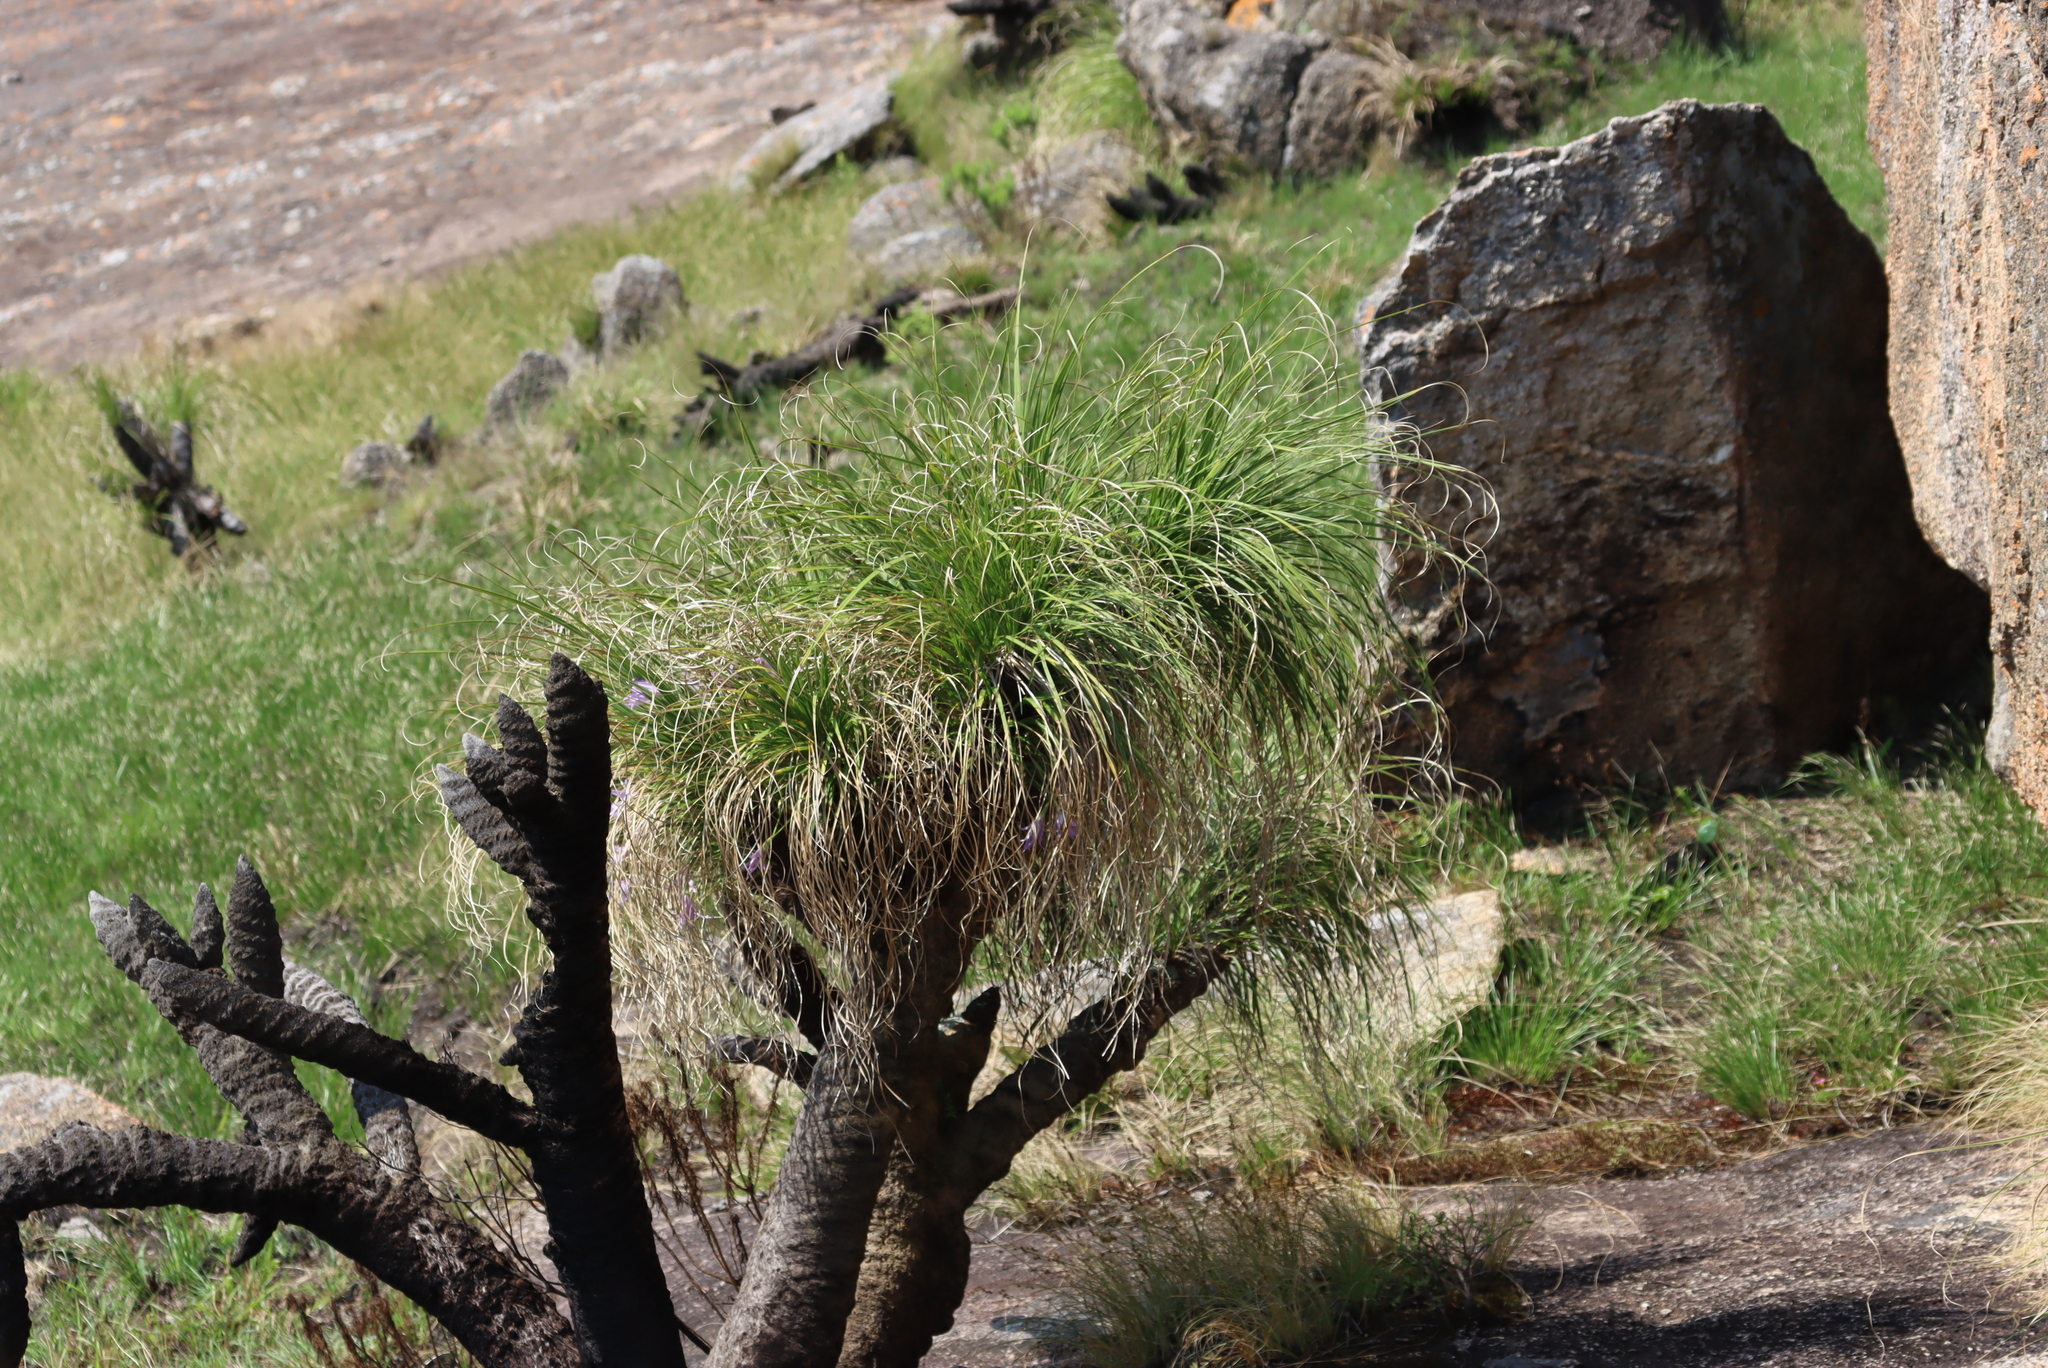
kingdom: Plantae
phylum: Tracheophyta
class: Liliopsida
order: Pandanales
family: Velloziaceae
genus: Xerophyta
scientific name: Xerophyta retinervis
